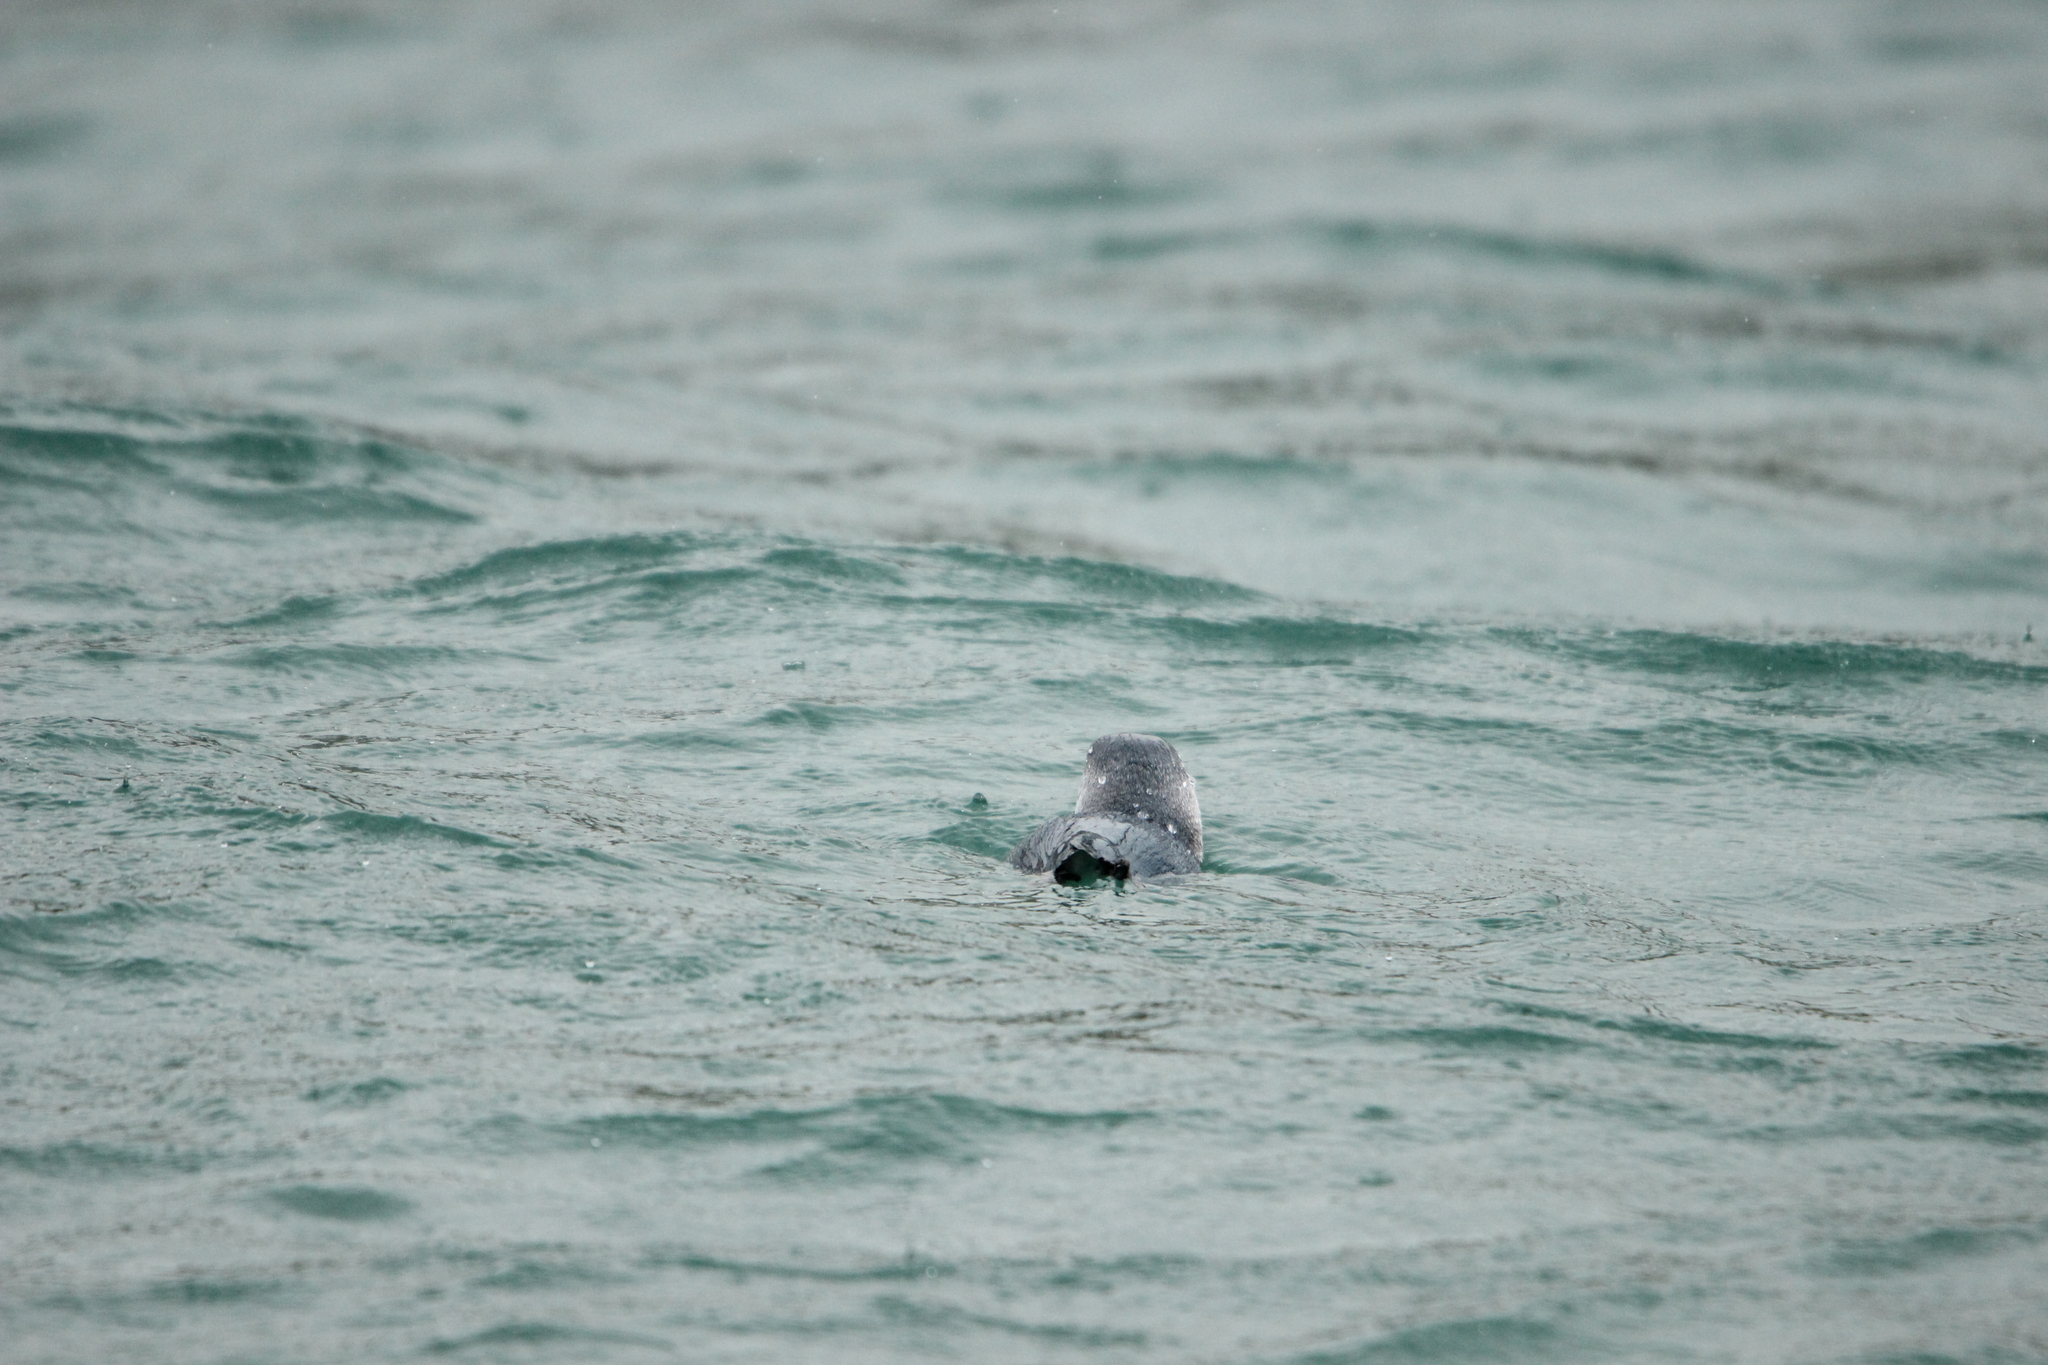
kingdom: Animalia
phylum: Chordata
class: Aves
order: Sphenisciformes
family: Spheniscidae
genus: Eudyptula
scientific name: Eudyptula minor
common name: Little penguin
